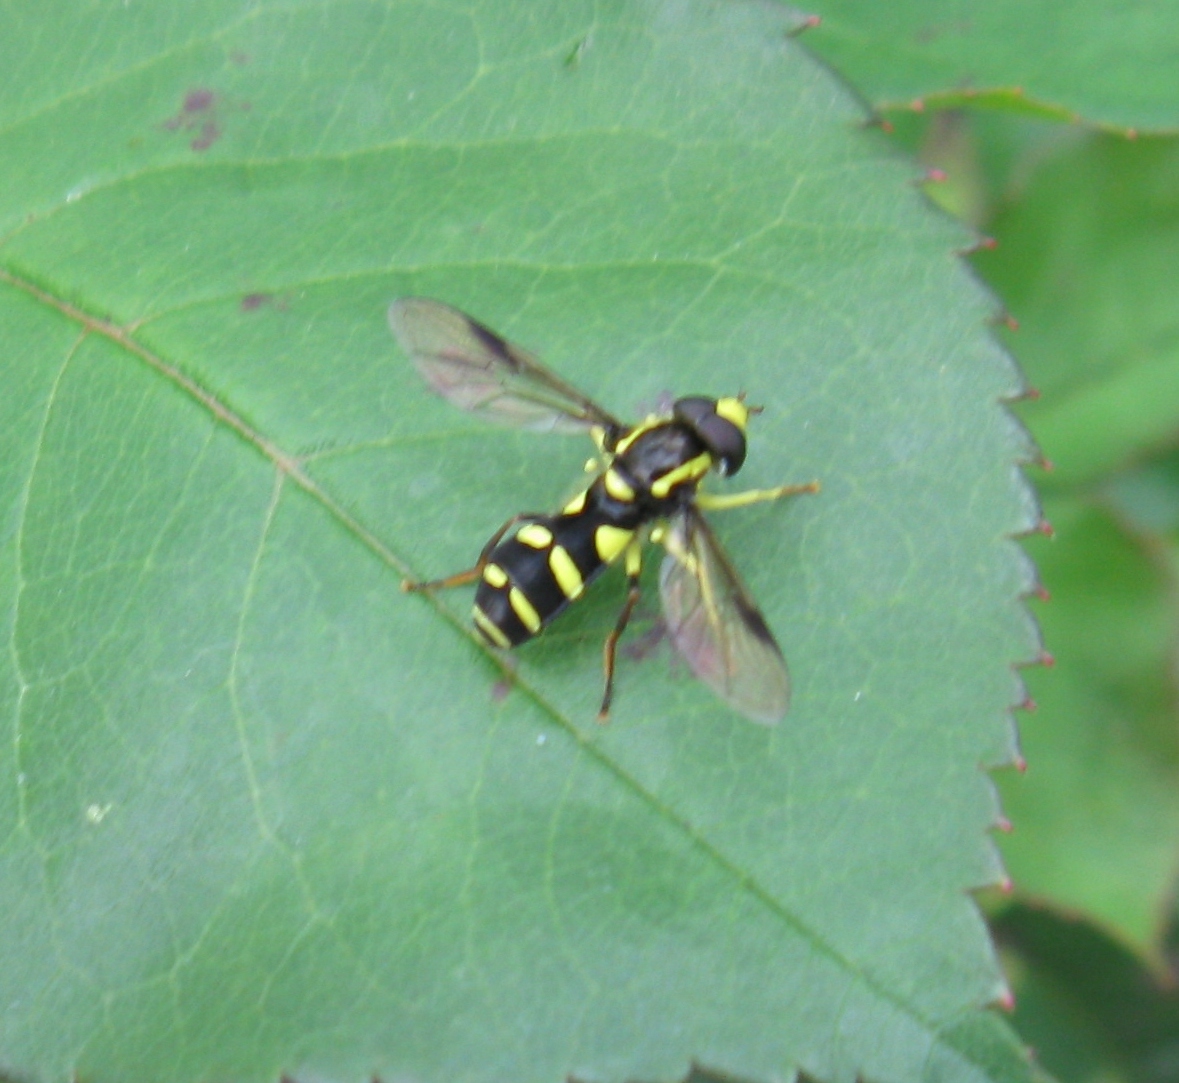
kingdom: Animalia
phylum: Arthropoda
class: Insecta
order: Diptera
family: Syrphidae
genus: Philhelius
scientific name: Philhelius pedissequum
